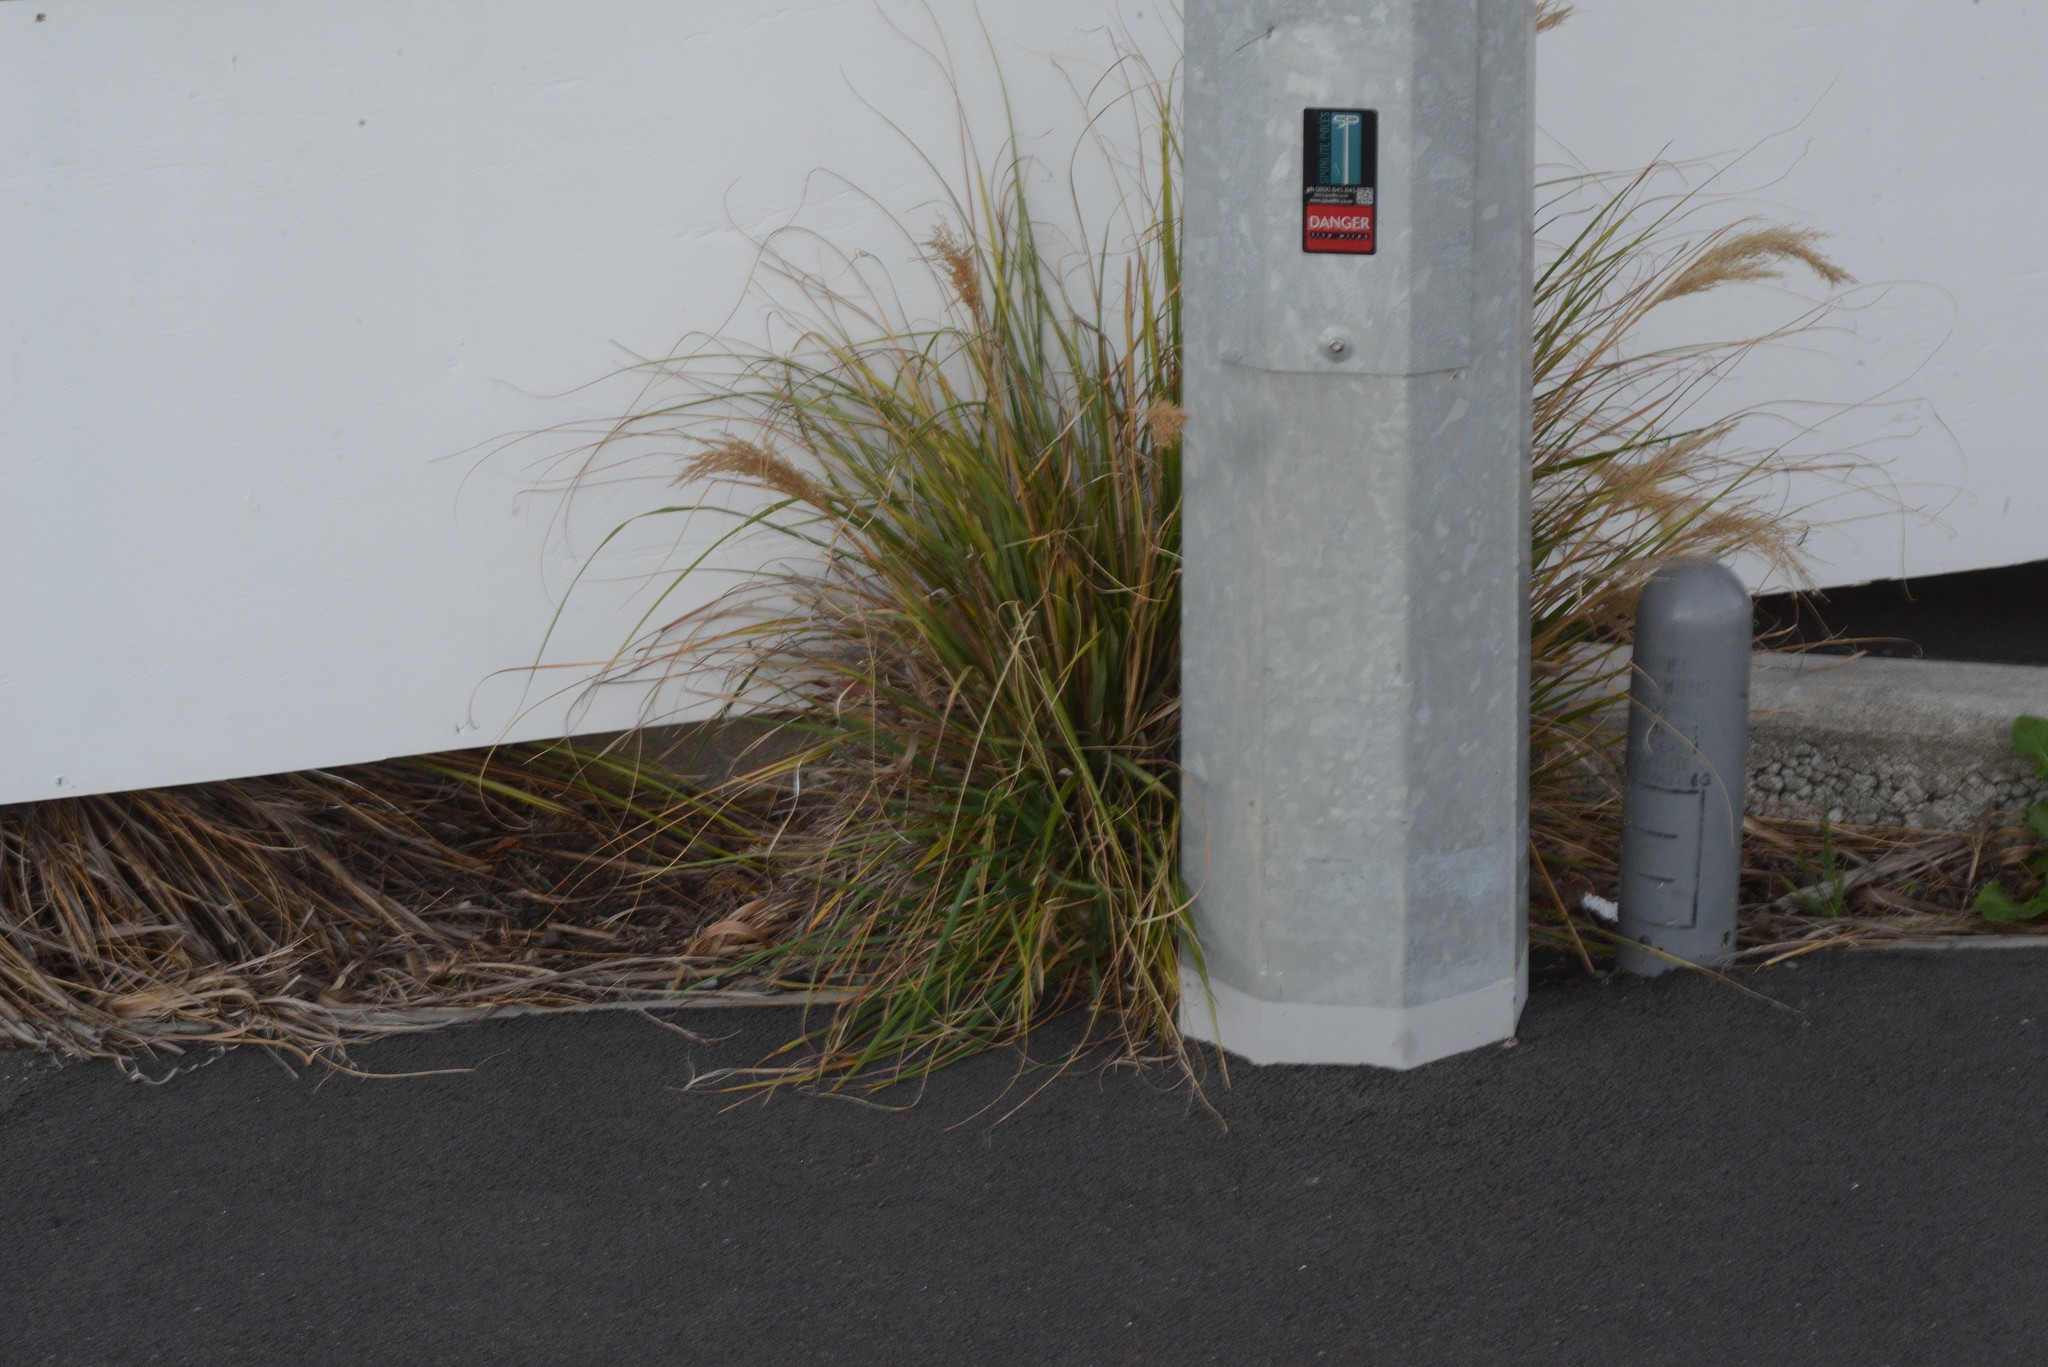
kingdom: Plantae
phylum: Tracheophyta
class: Liliopsida
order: Poales
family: Poaceae
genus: Anemanthele
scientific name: Anemanthele lessoniana
